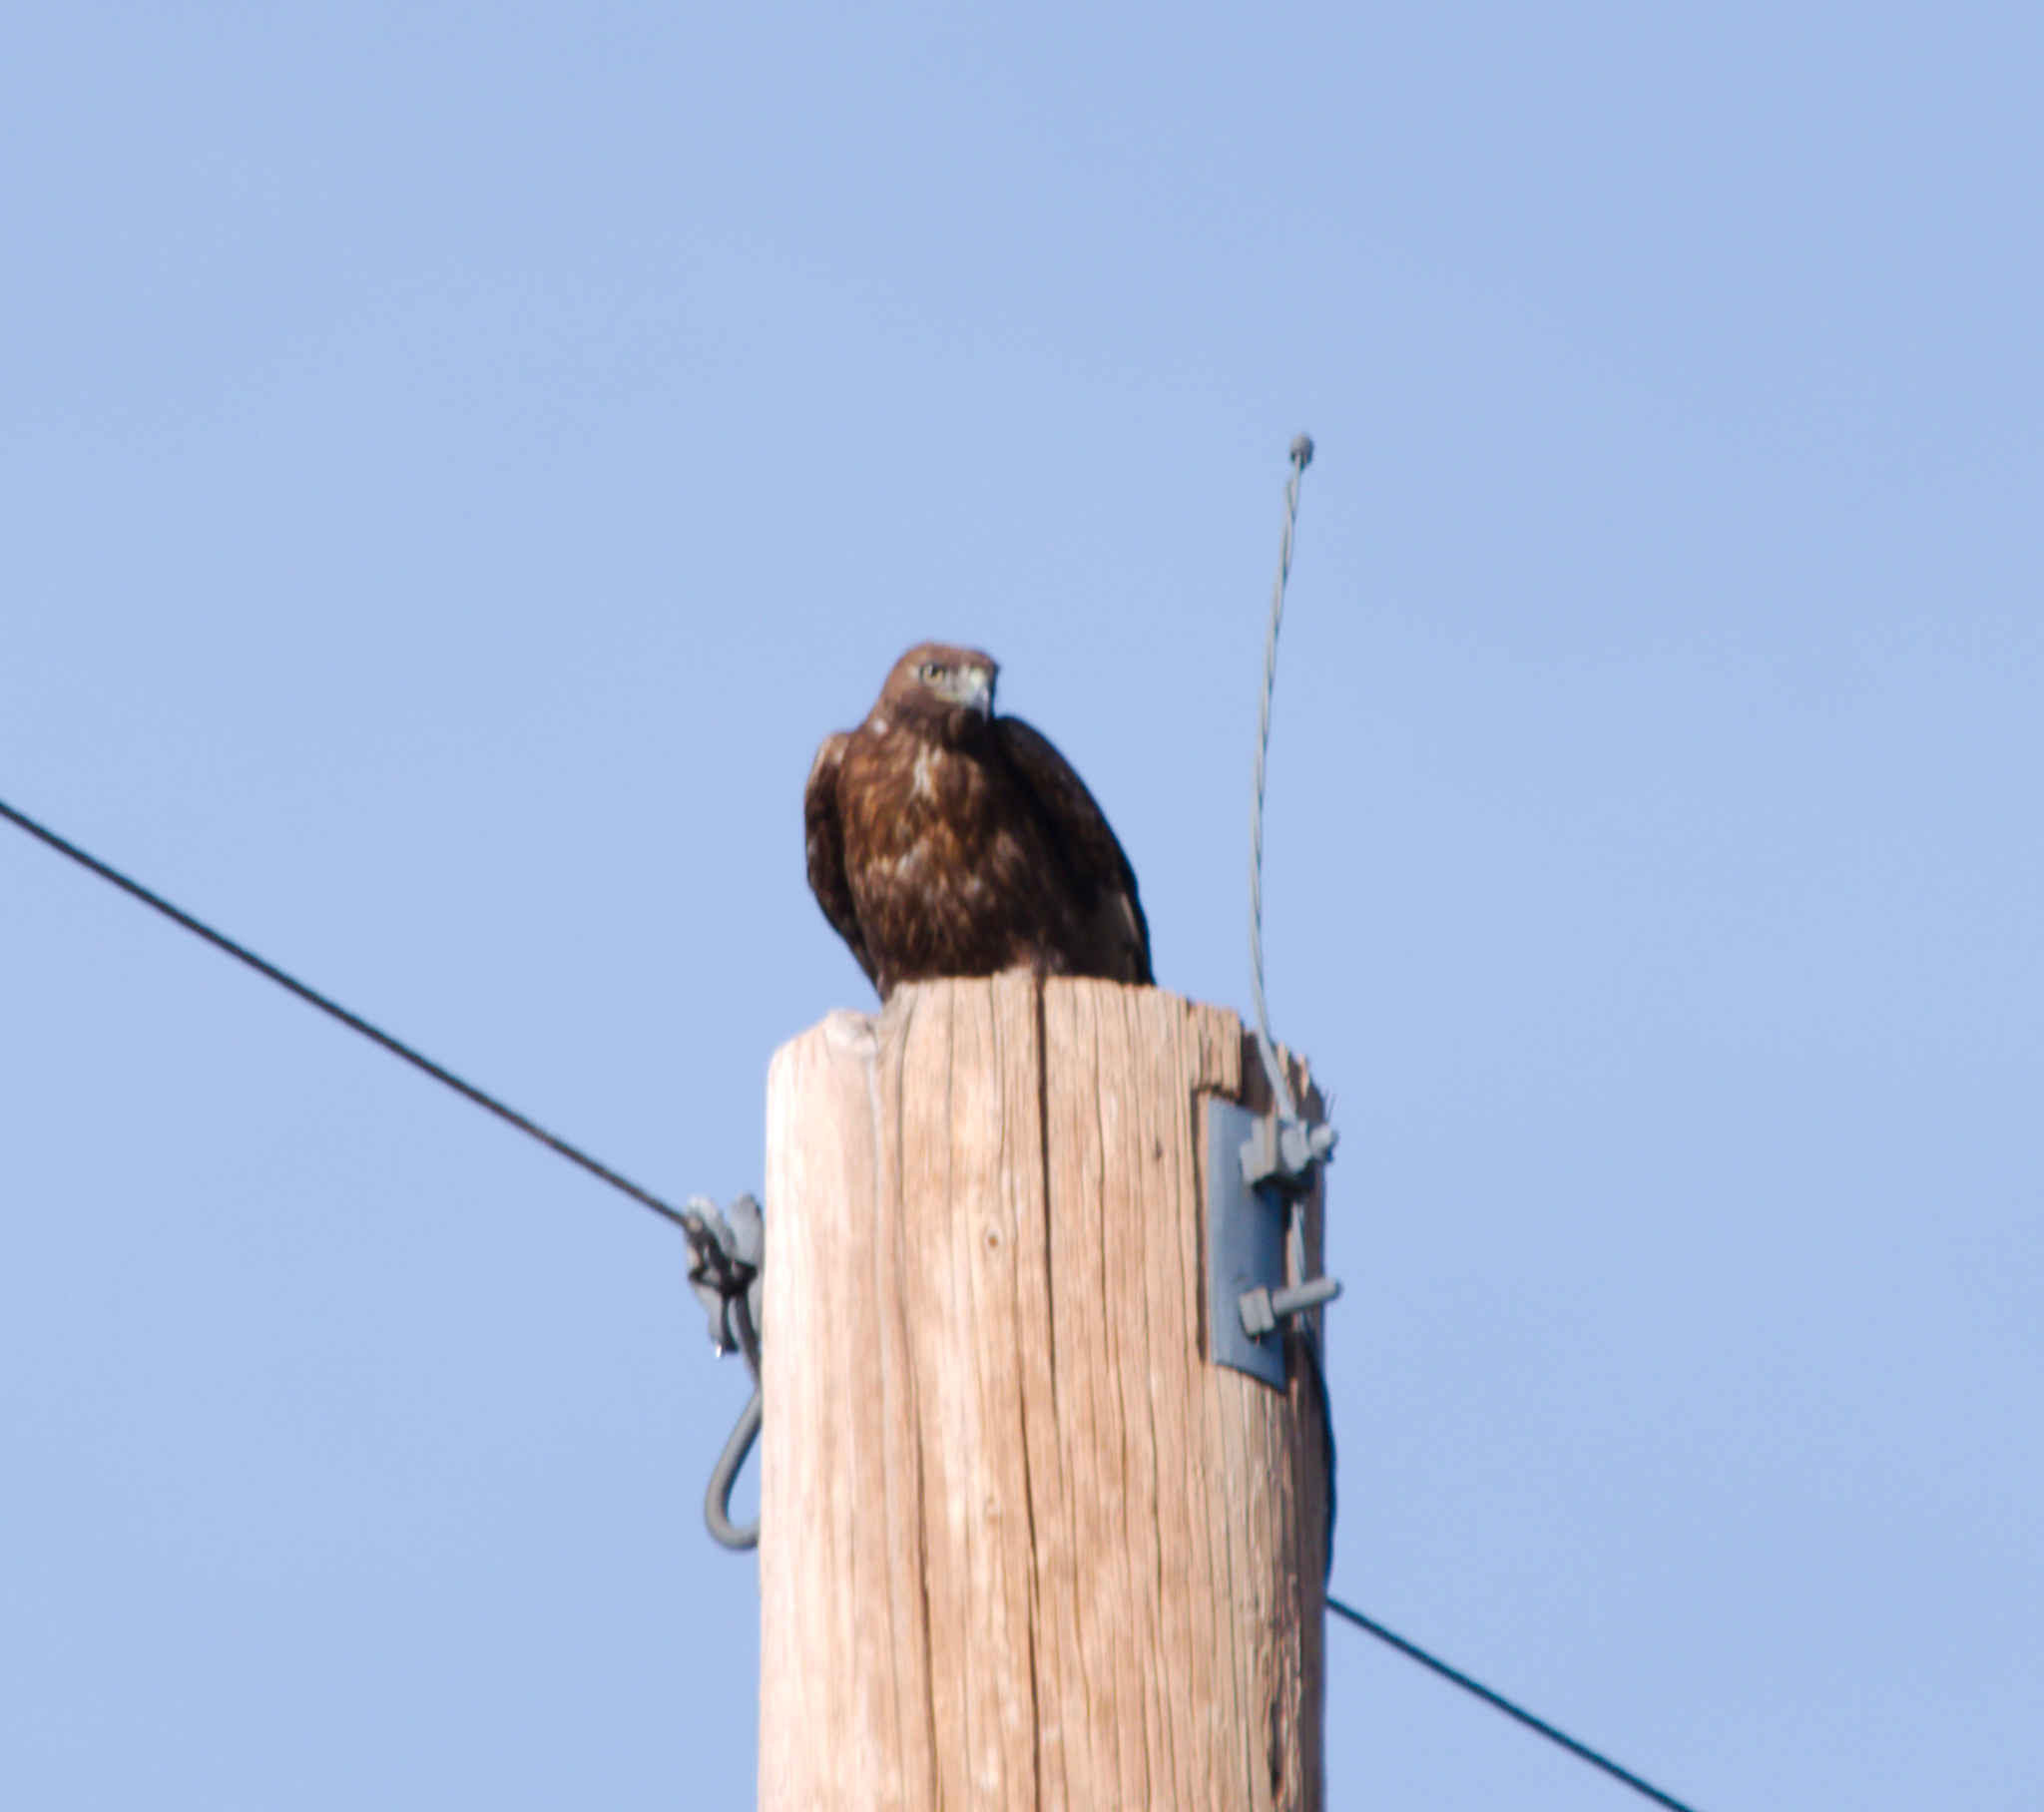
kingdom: Animalia
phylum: Chordata
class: Aves
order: Accipitriformes
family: Accipitridae
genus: Buteo
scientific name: Buteo jamaicensis
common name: Red-tailed hawk
